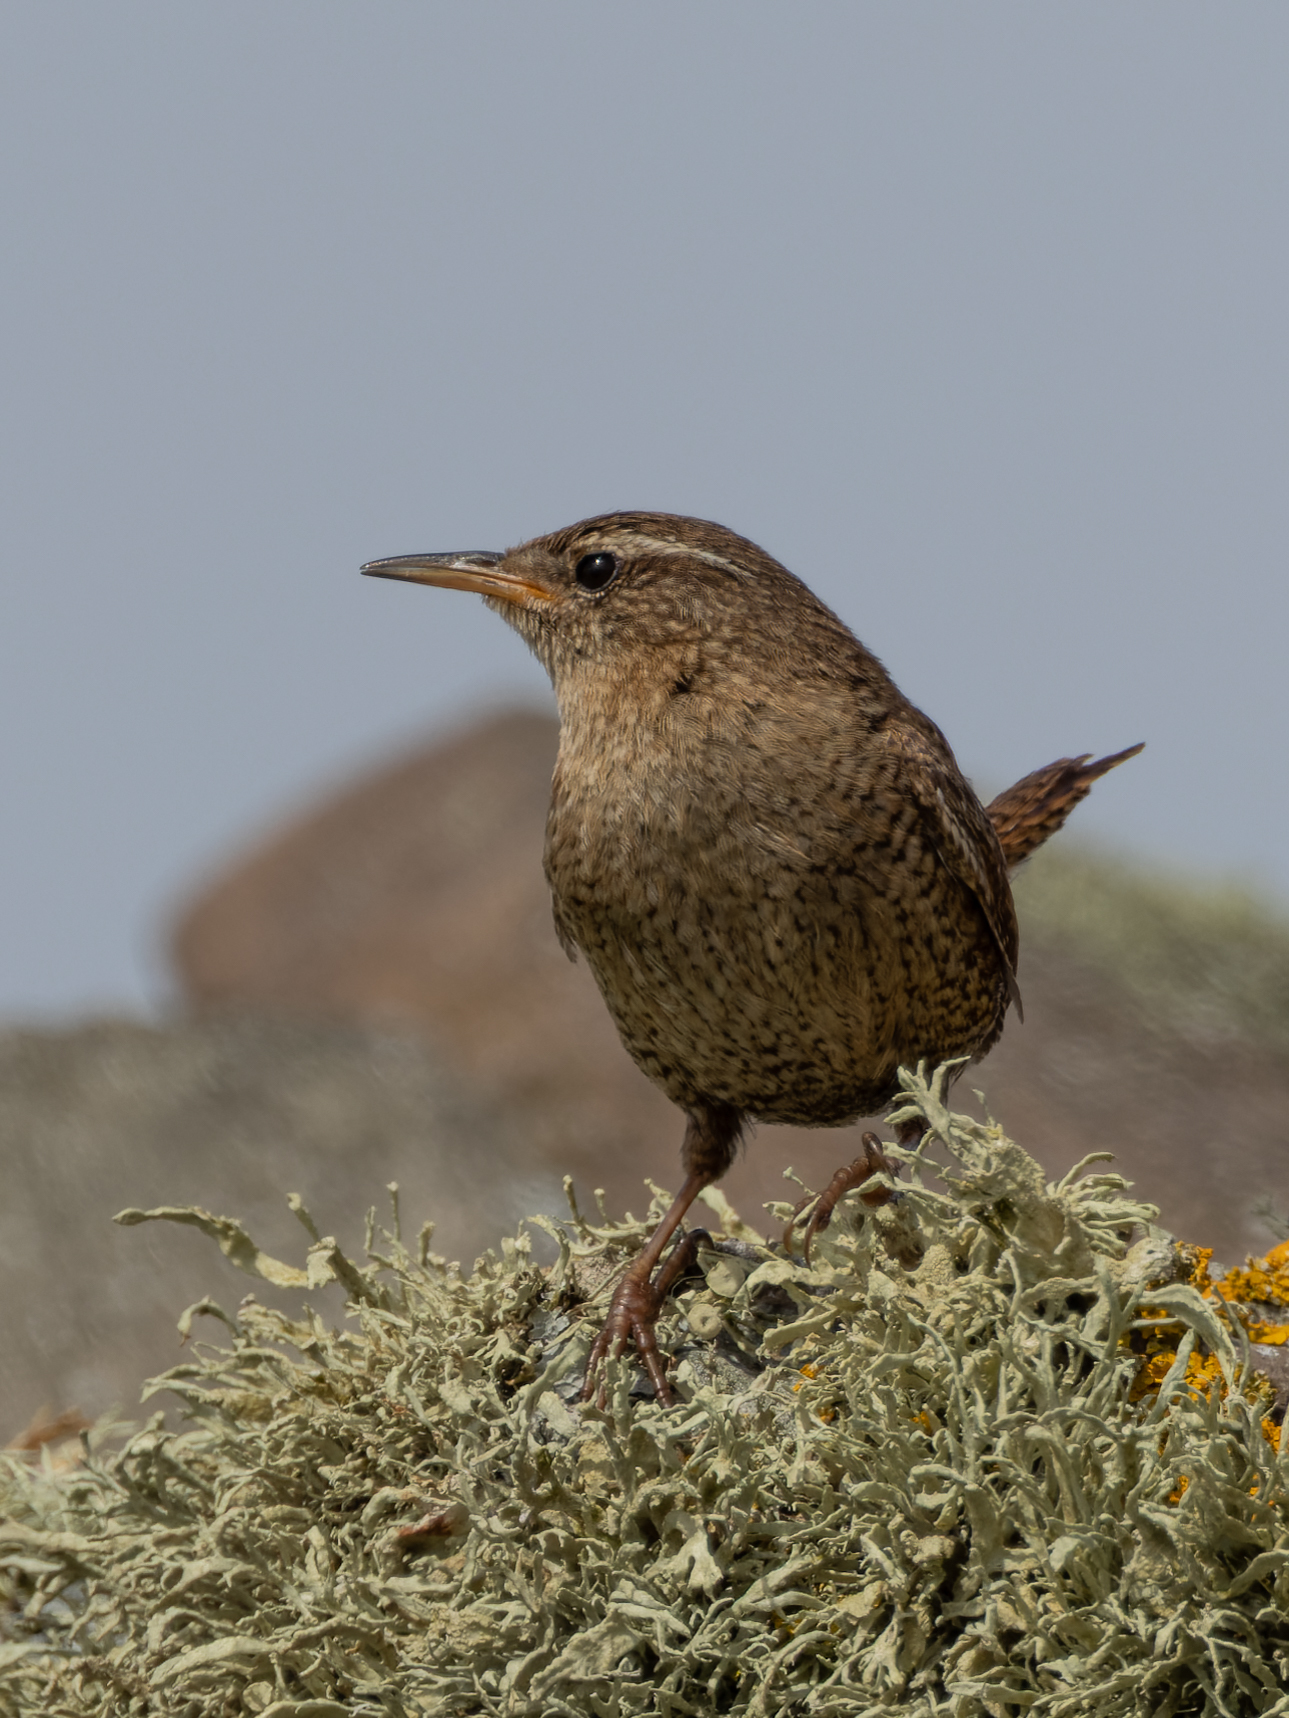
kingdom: Animalia
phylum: Chordata
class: Aves
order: Passeriformes
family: Troglodytidae
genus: Troglodytes
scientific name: Troglodytes troglodytes
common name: Eurasian wren
